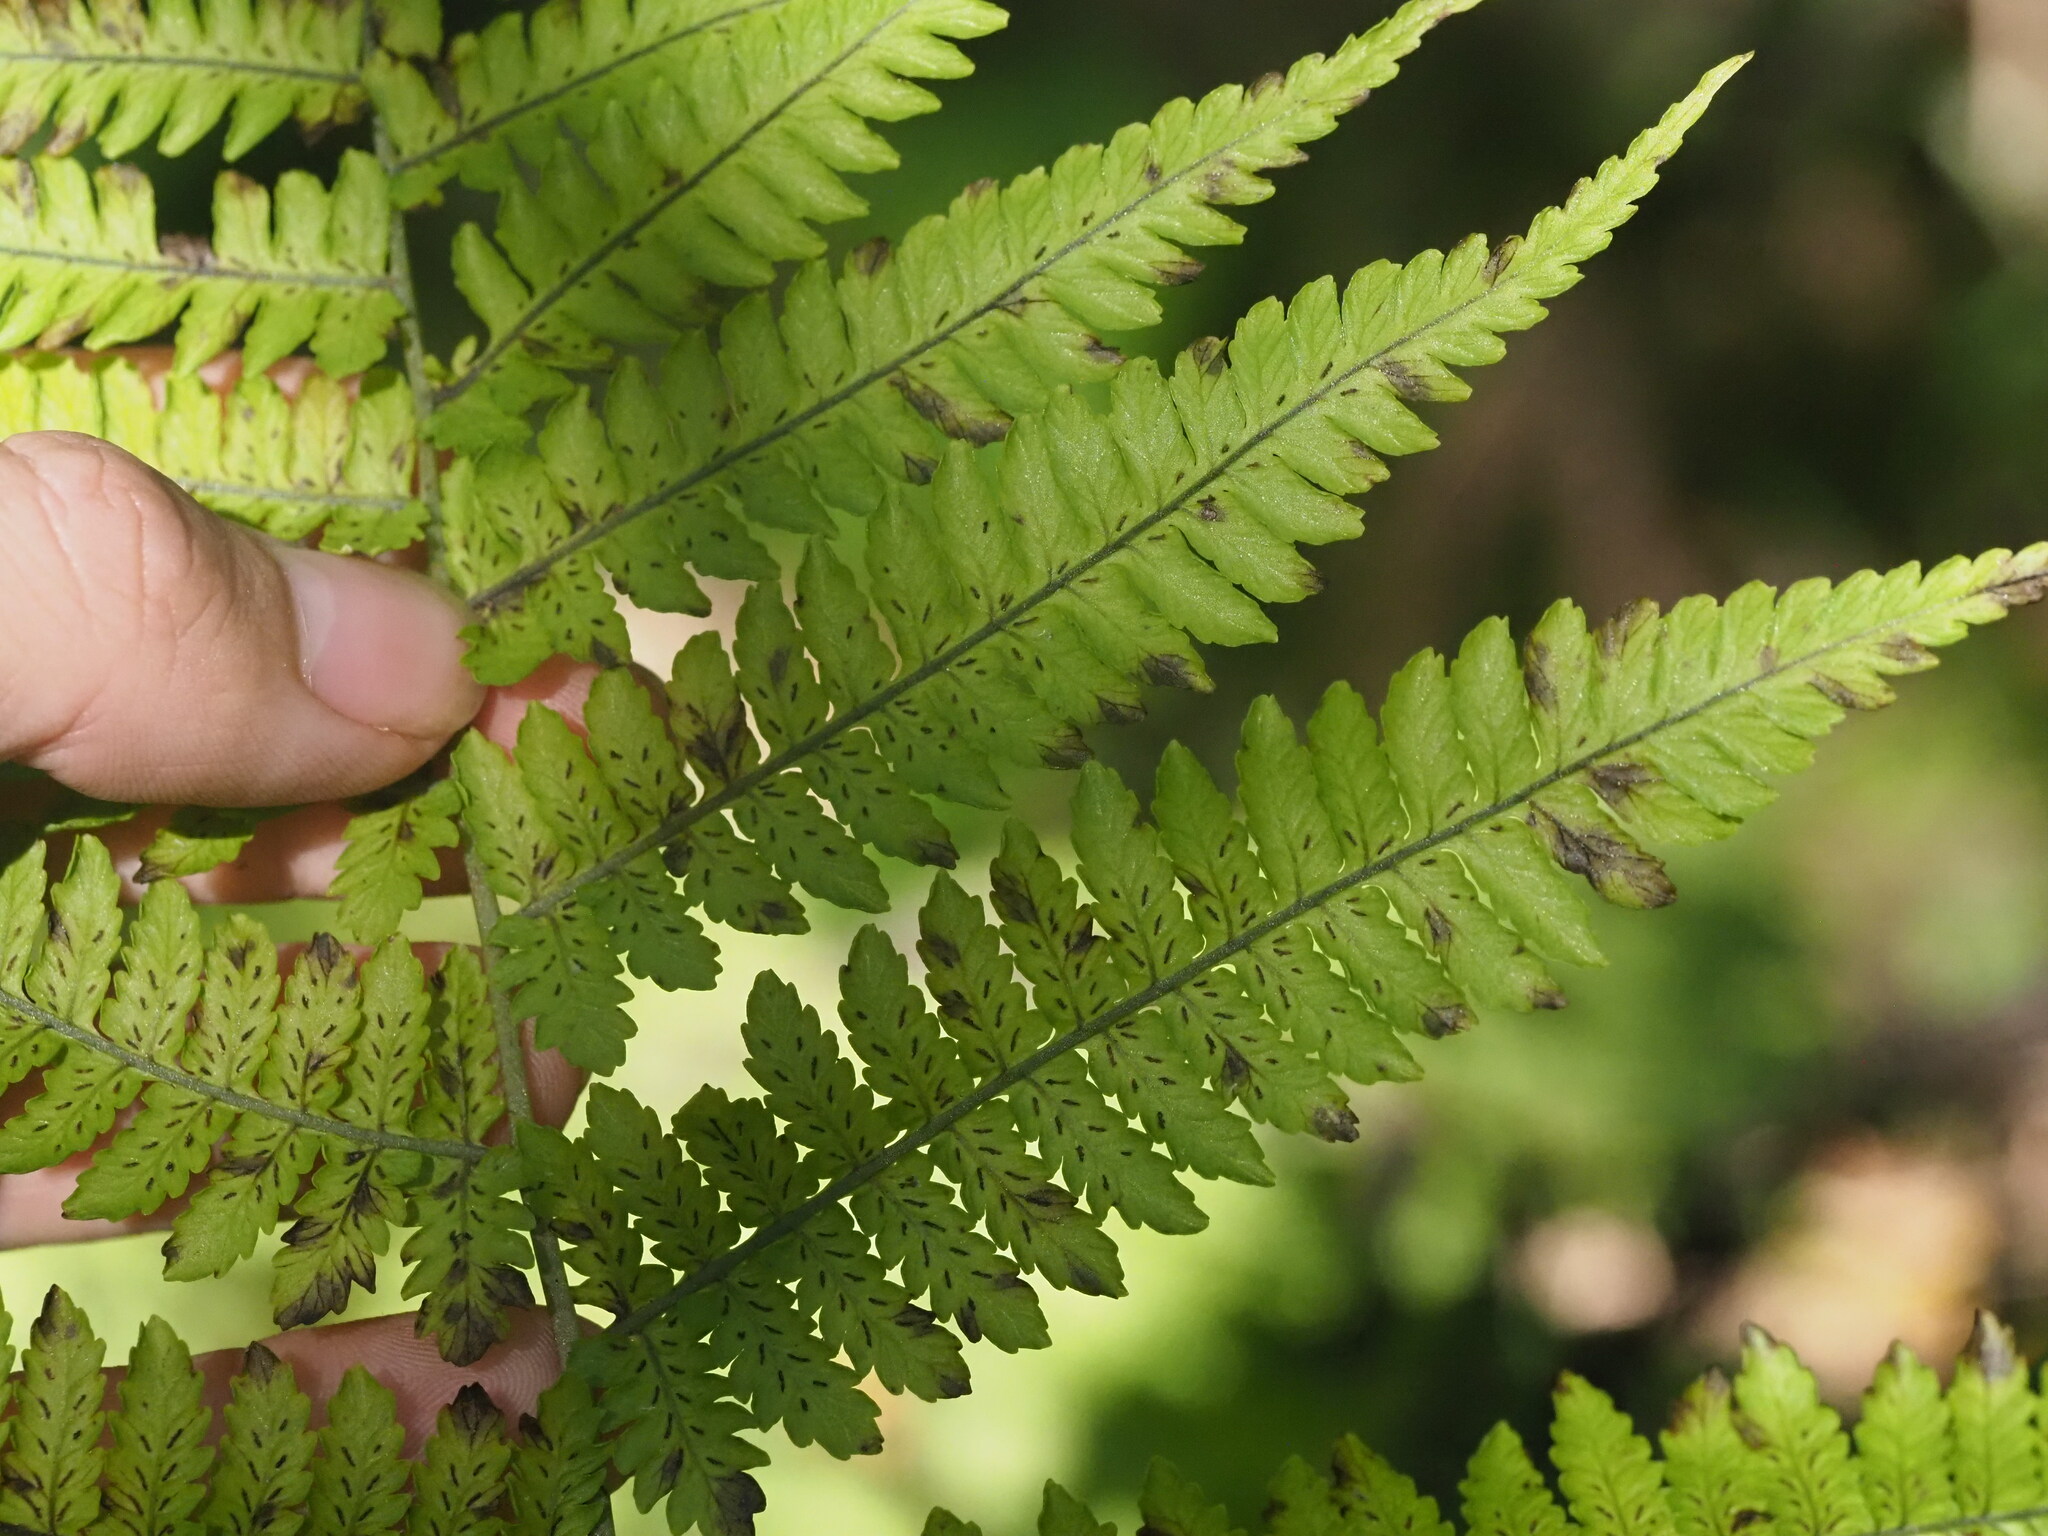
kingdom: Plantae
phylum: Tracheophyta
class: Polypodiopsida
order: Polypodiales
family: Athyriaceae
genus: Diplazium
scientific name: Diplazium sandwichianum
